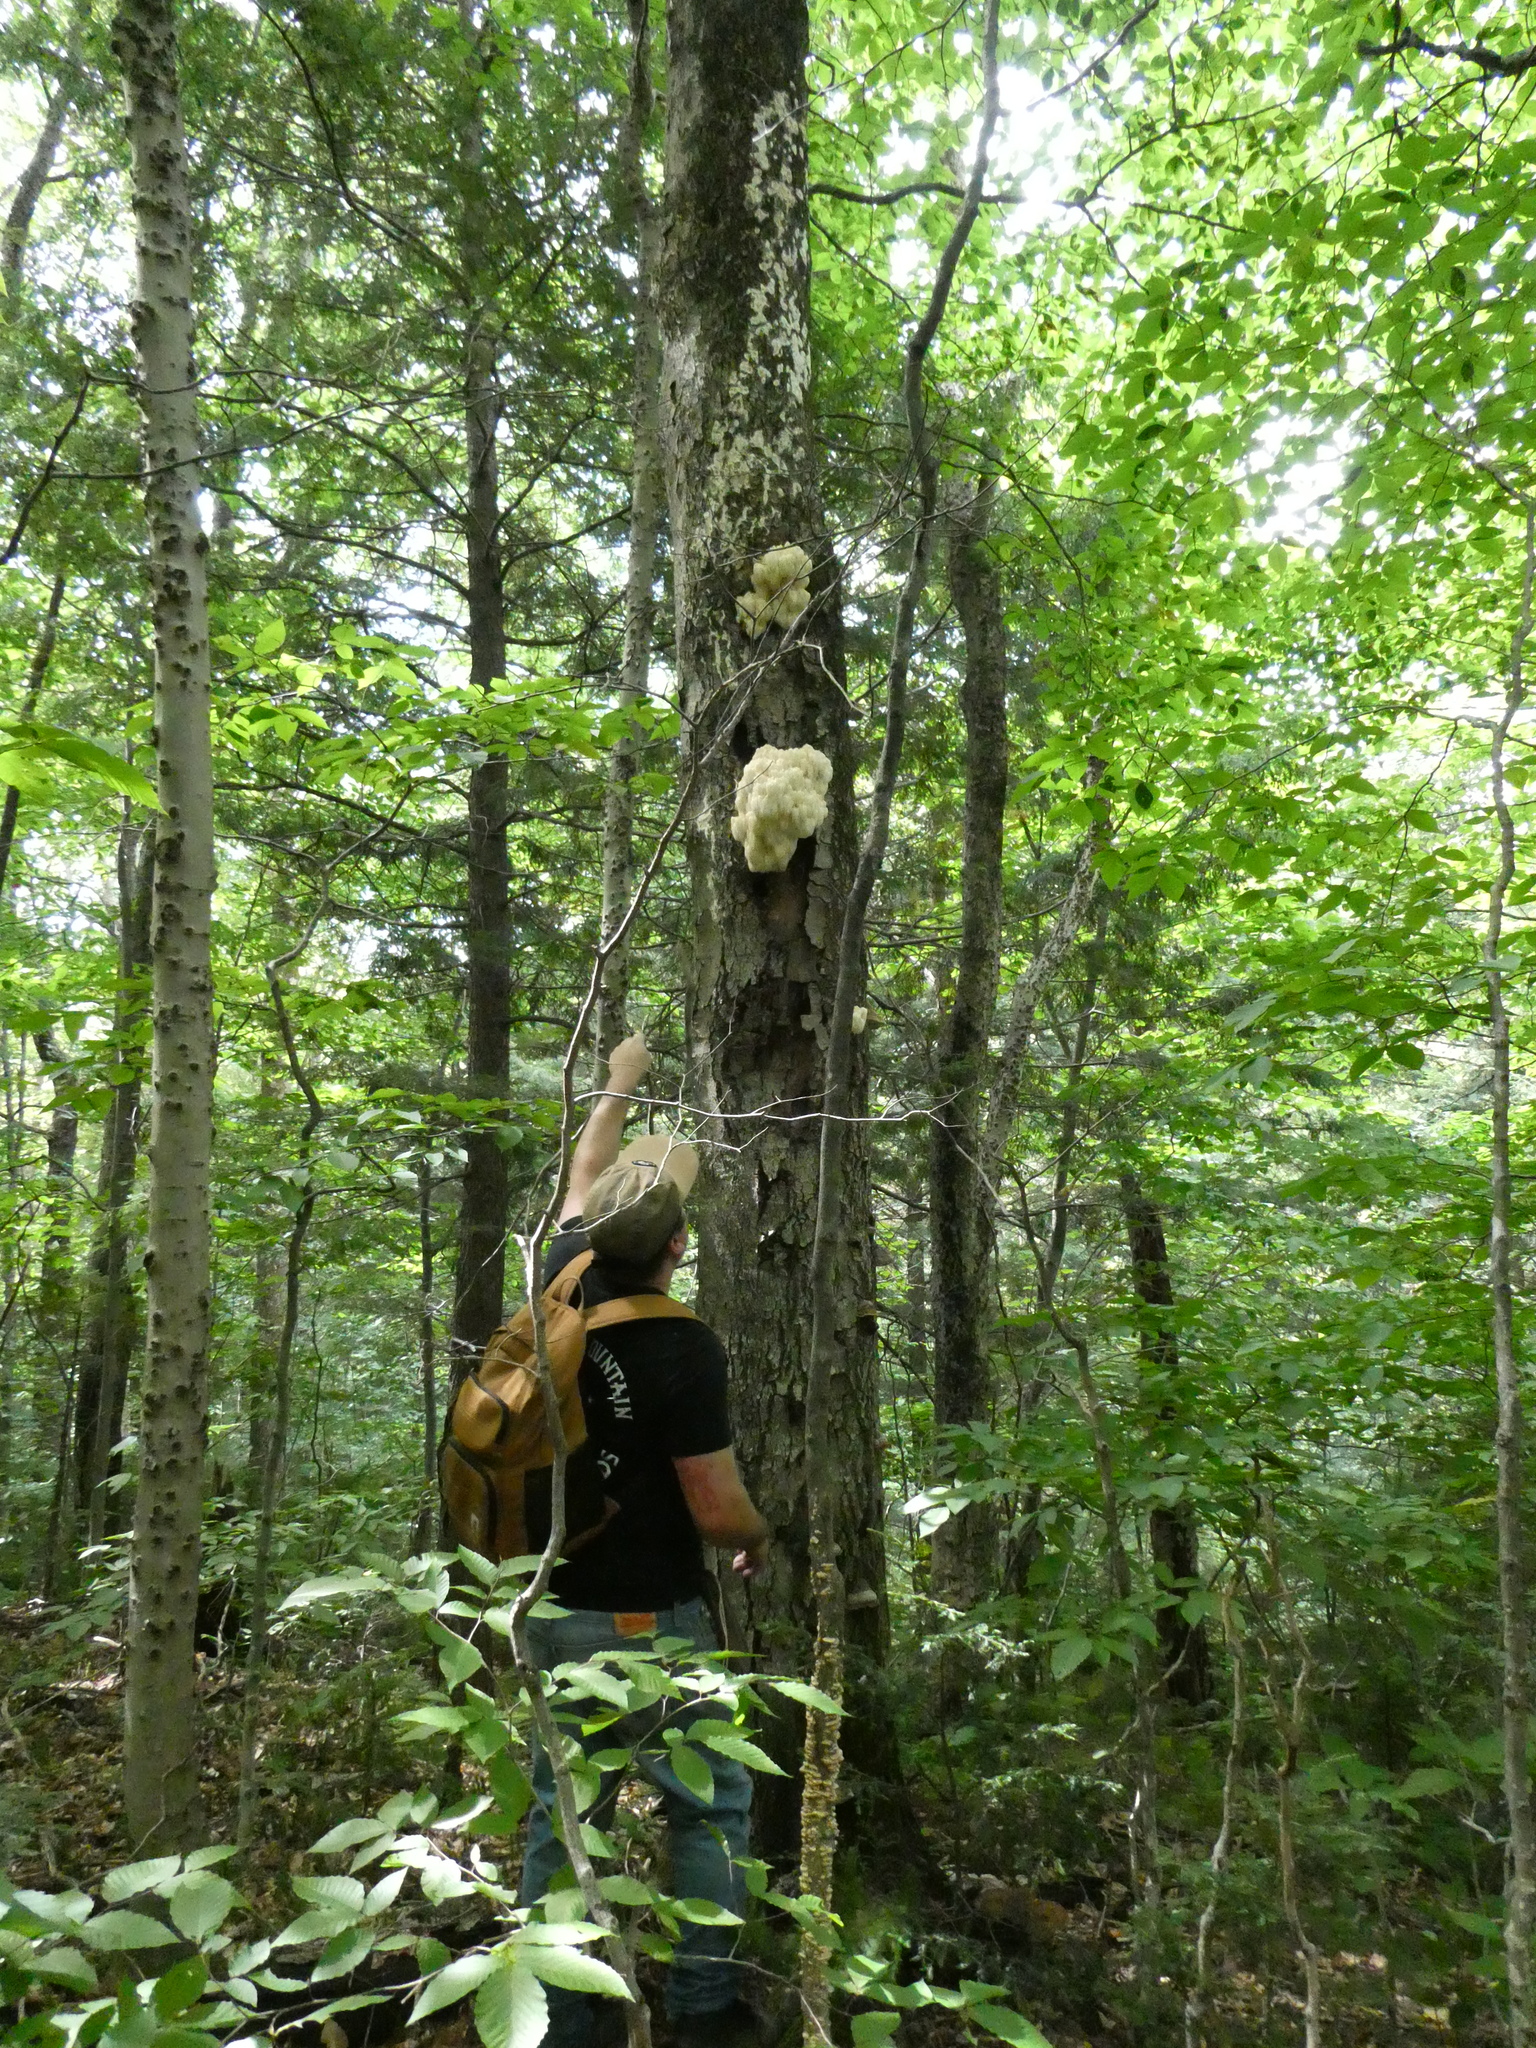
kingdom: Fungi
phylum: Basidiomycota
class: Agaricomycetes
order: Russulales
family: Hericiaceae
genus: Hericium
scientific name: Hericium americanum
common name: Bear's head tooth
